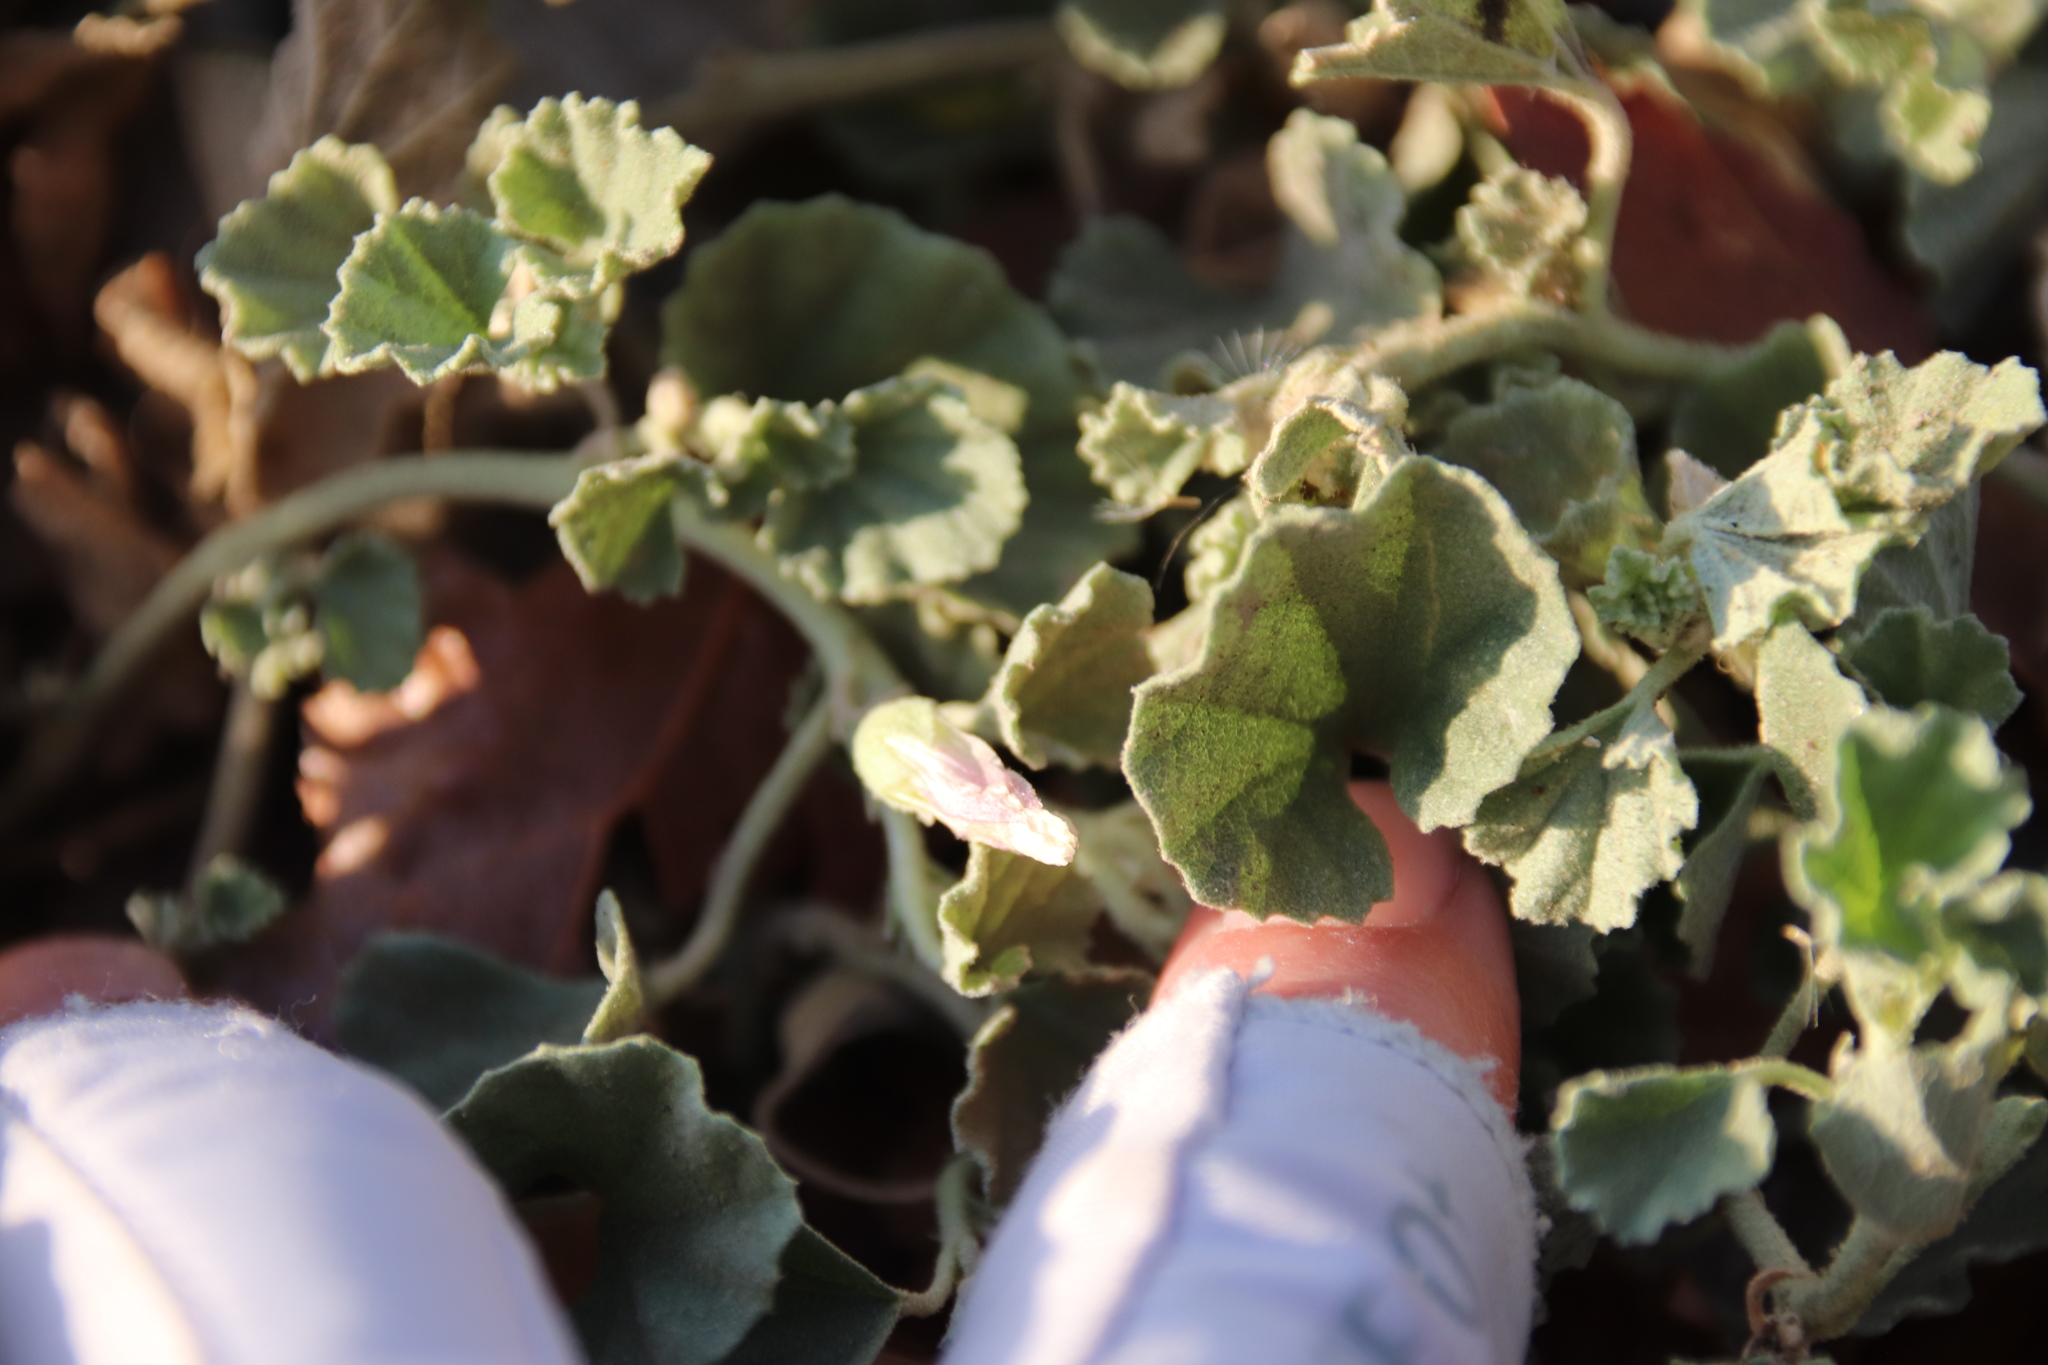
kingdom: Plantae
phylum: Tracheophyta
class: Magnoliopsida
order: Malvales
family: Malvaceae
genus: Malvella
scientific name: Malvella leprosa
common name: Alkali-mallow
